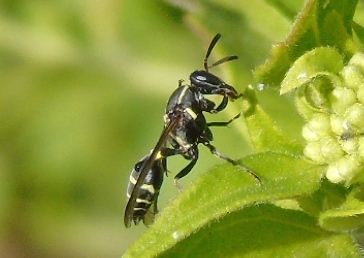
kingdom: Animalia
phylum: Arthropoda
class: Insecta
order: Hymenoptera
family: Vespidae
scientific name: Vespidae
